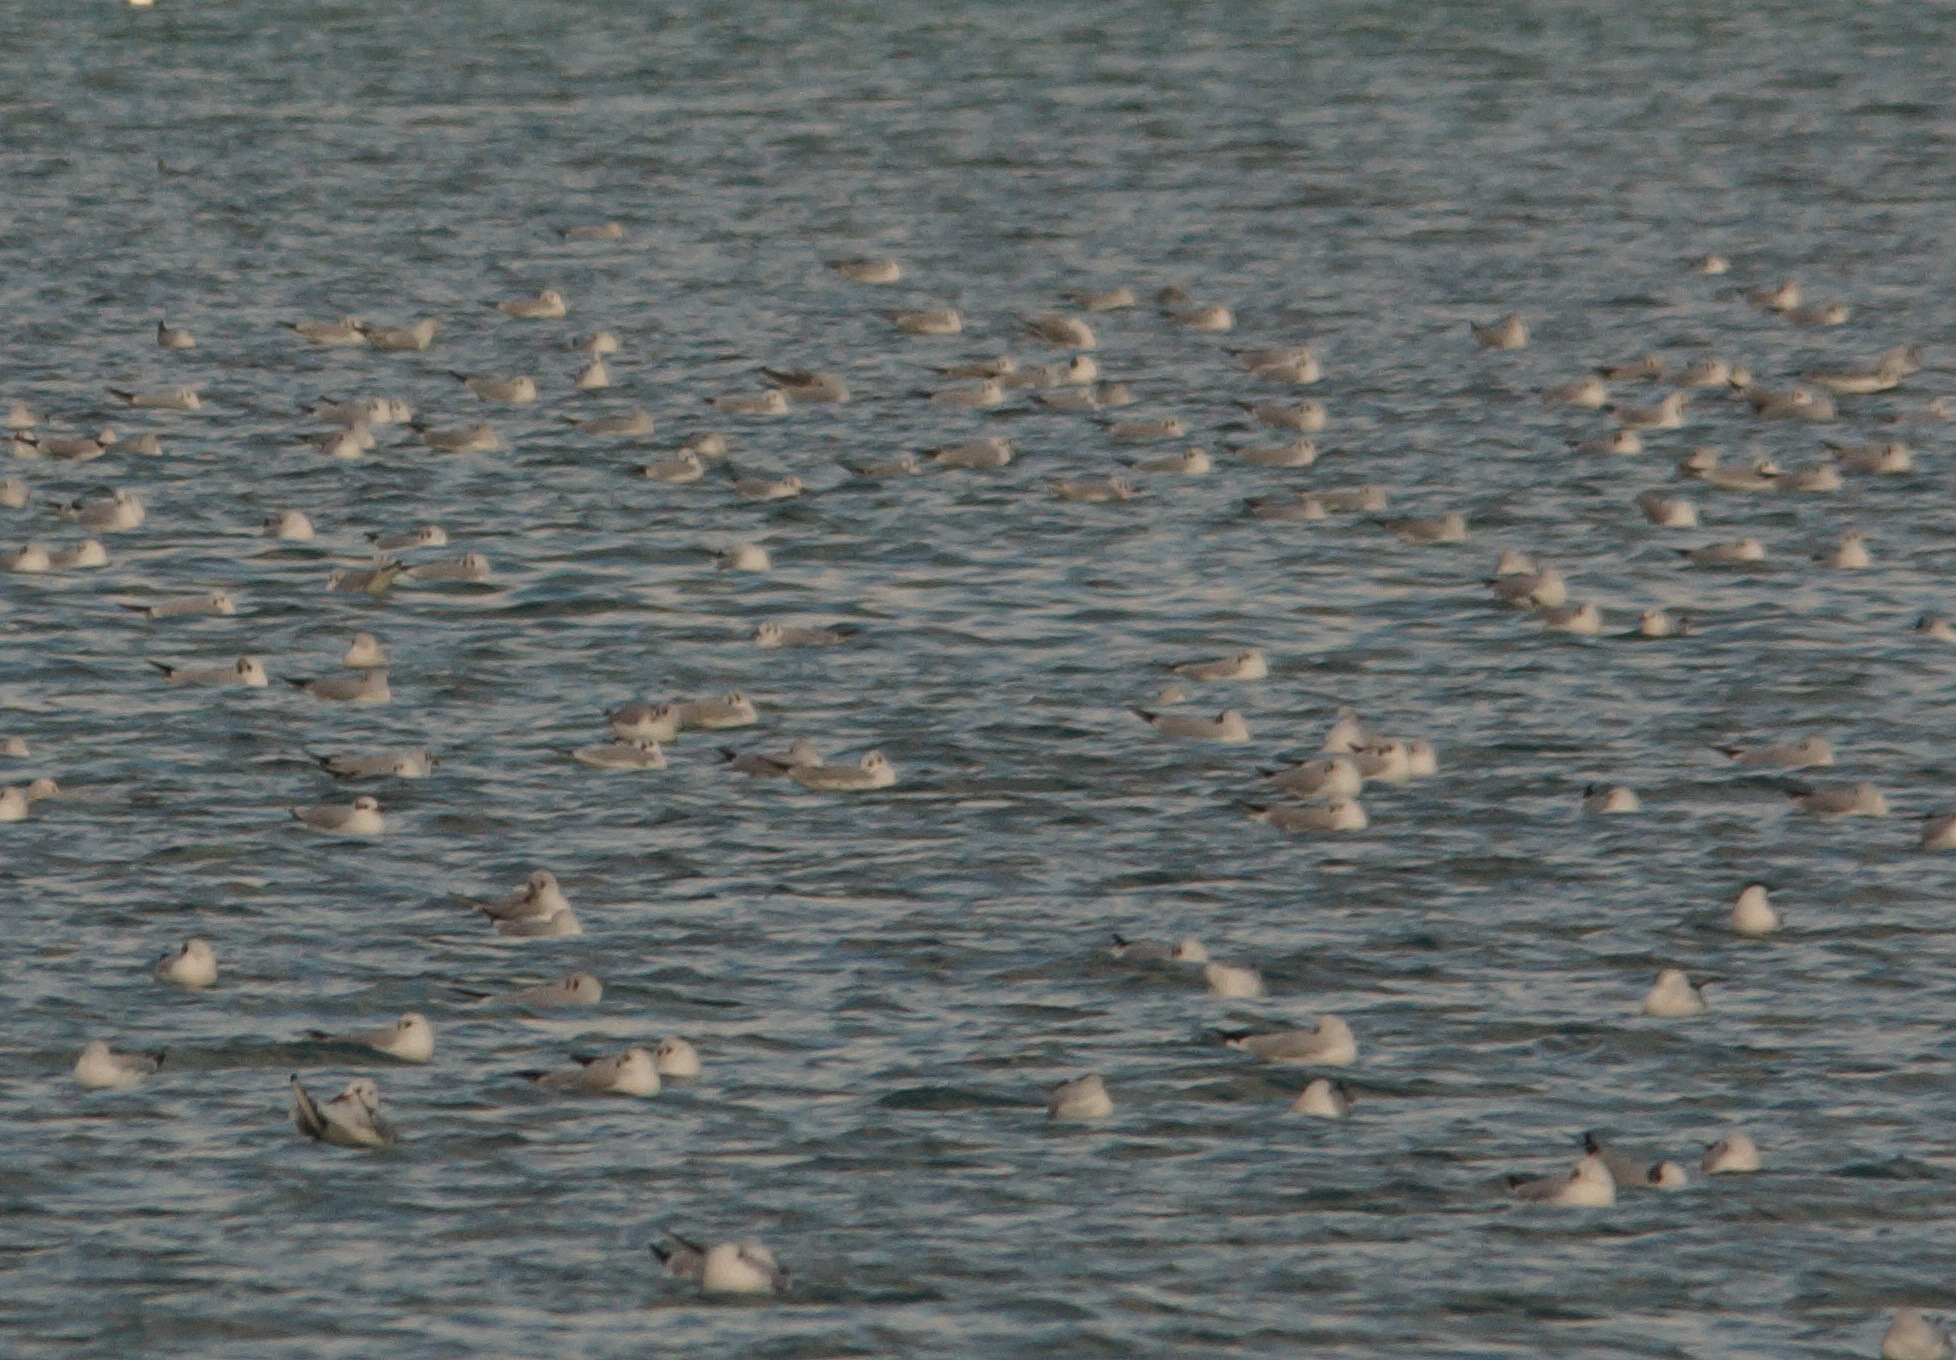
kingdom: Animalia
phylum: Chordata
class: Aves
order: Charadriiformes
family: Laridae
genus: Chroicocephalus
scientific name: Chroicocephalus ridibundus
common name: Black-headed gull
